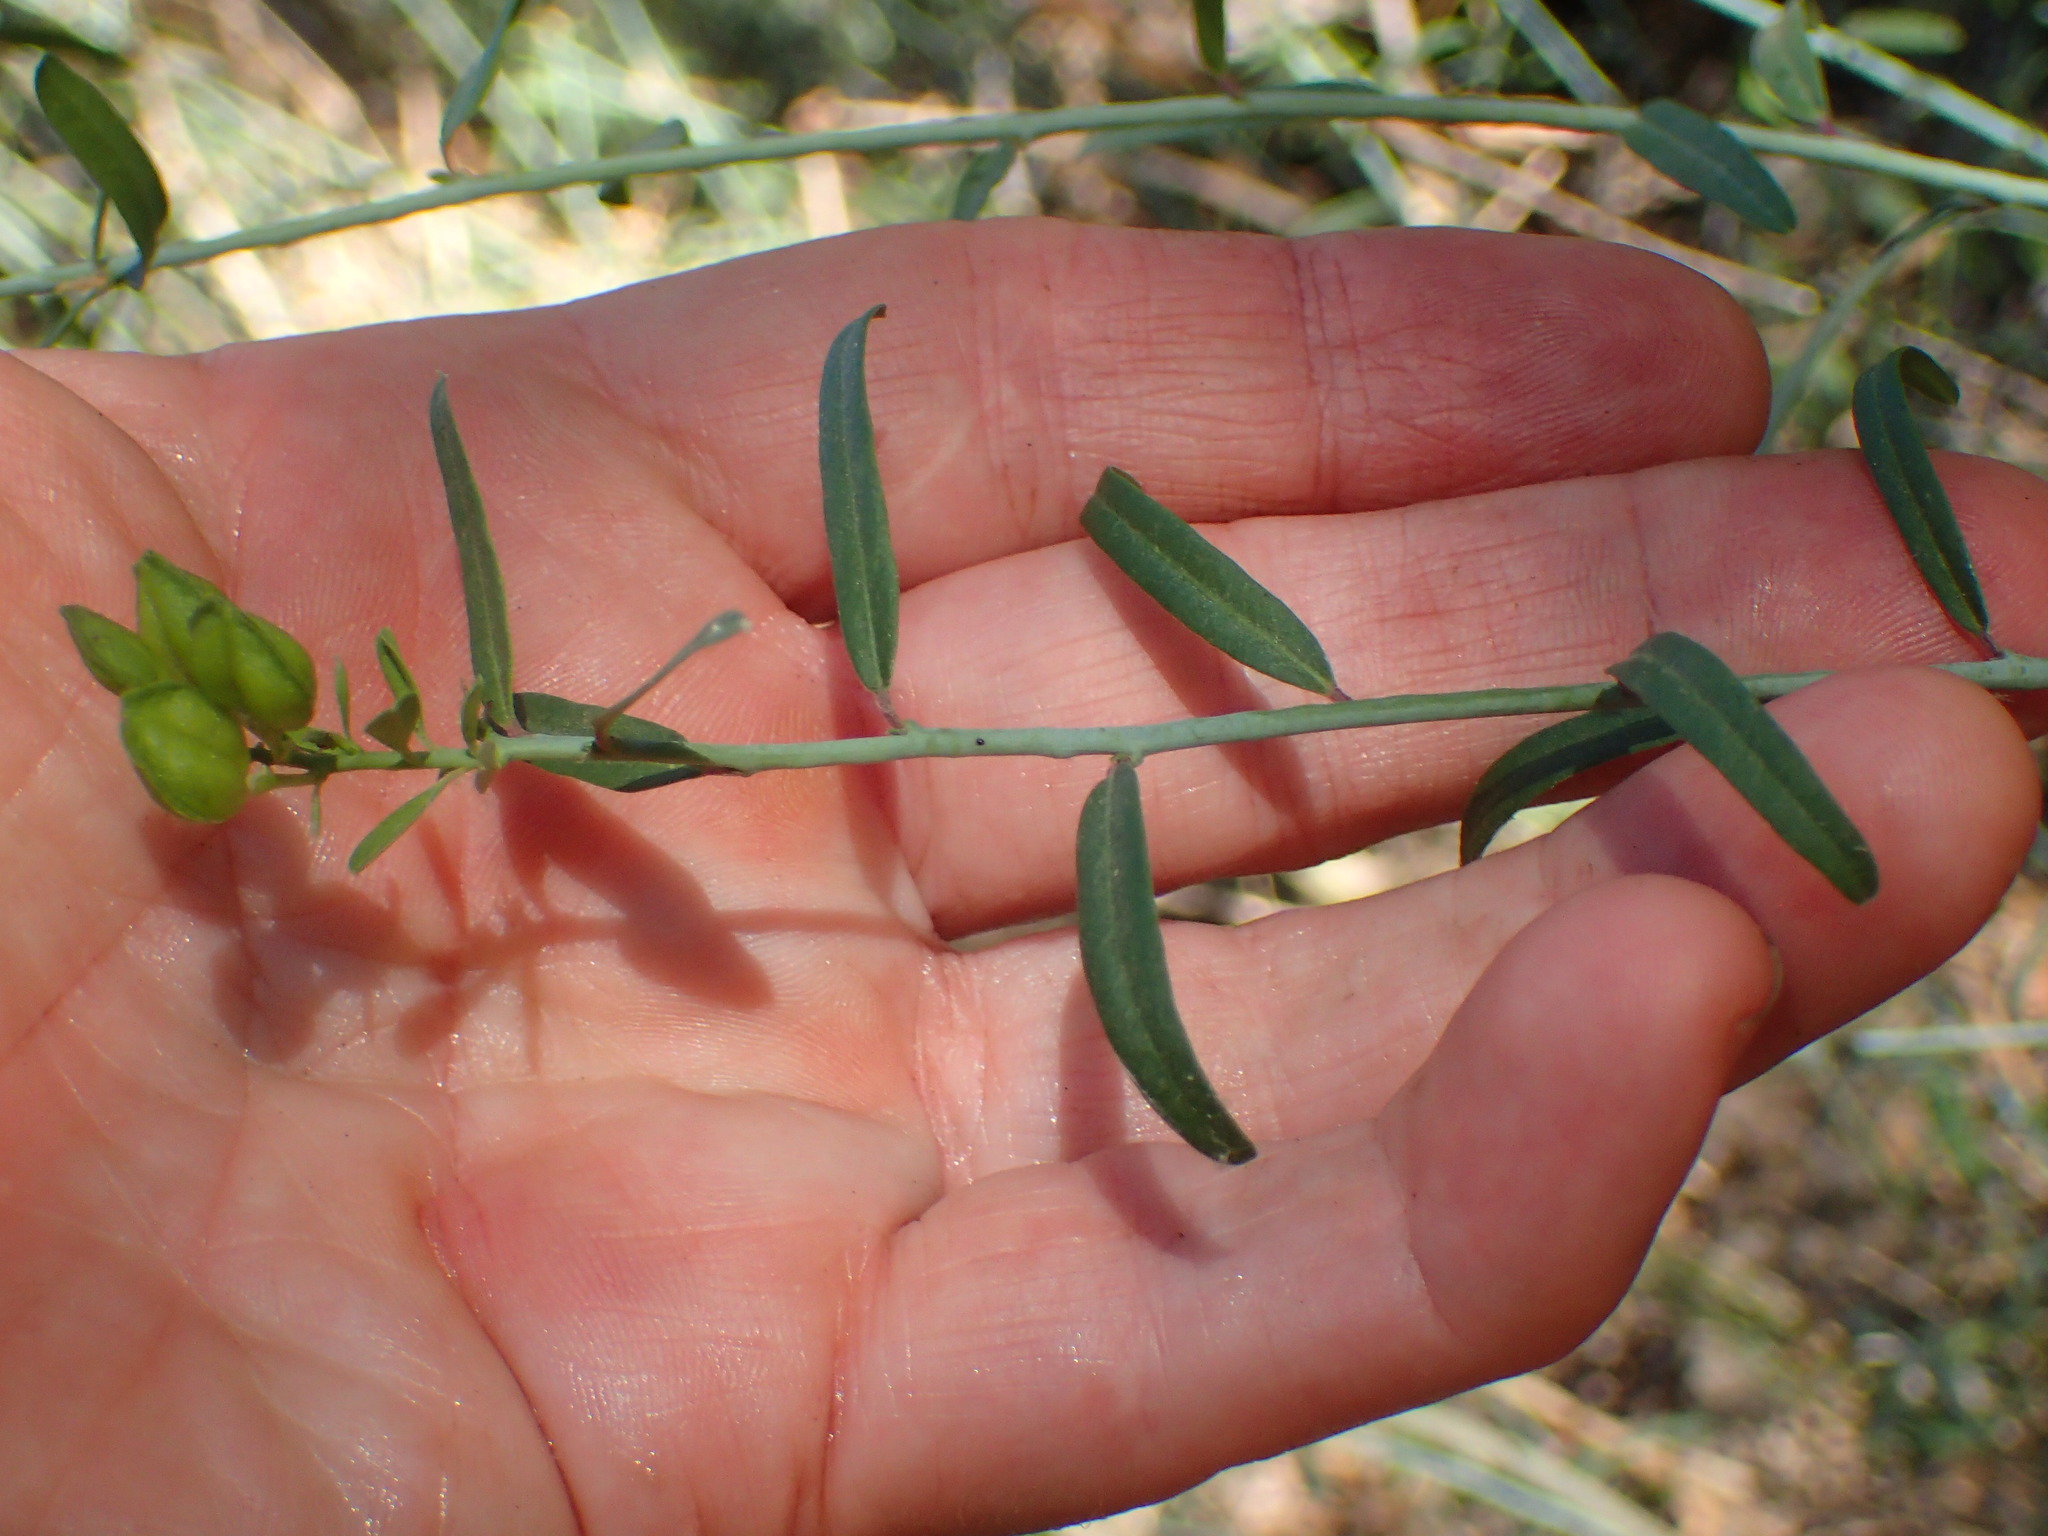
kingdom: Plantae
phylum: Tracheophyta
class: Magnoliopsida
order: Fabales
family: Polygalaceae
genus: Rhinotropis
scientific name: Rhinotropis cornuta
